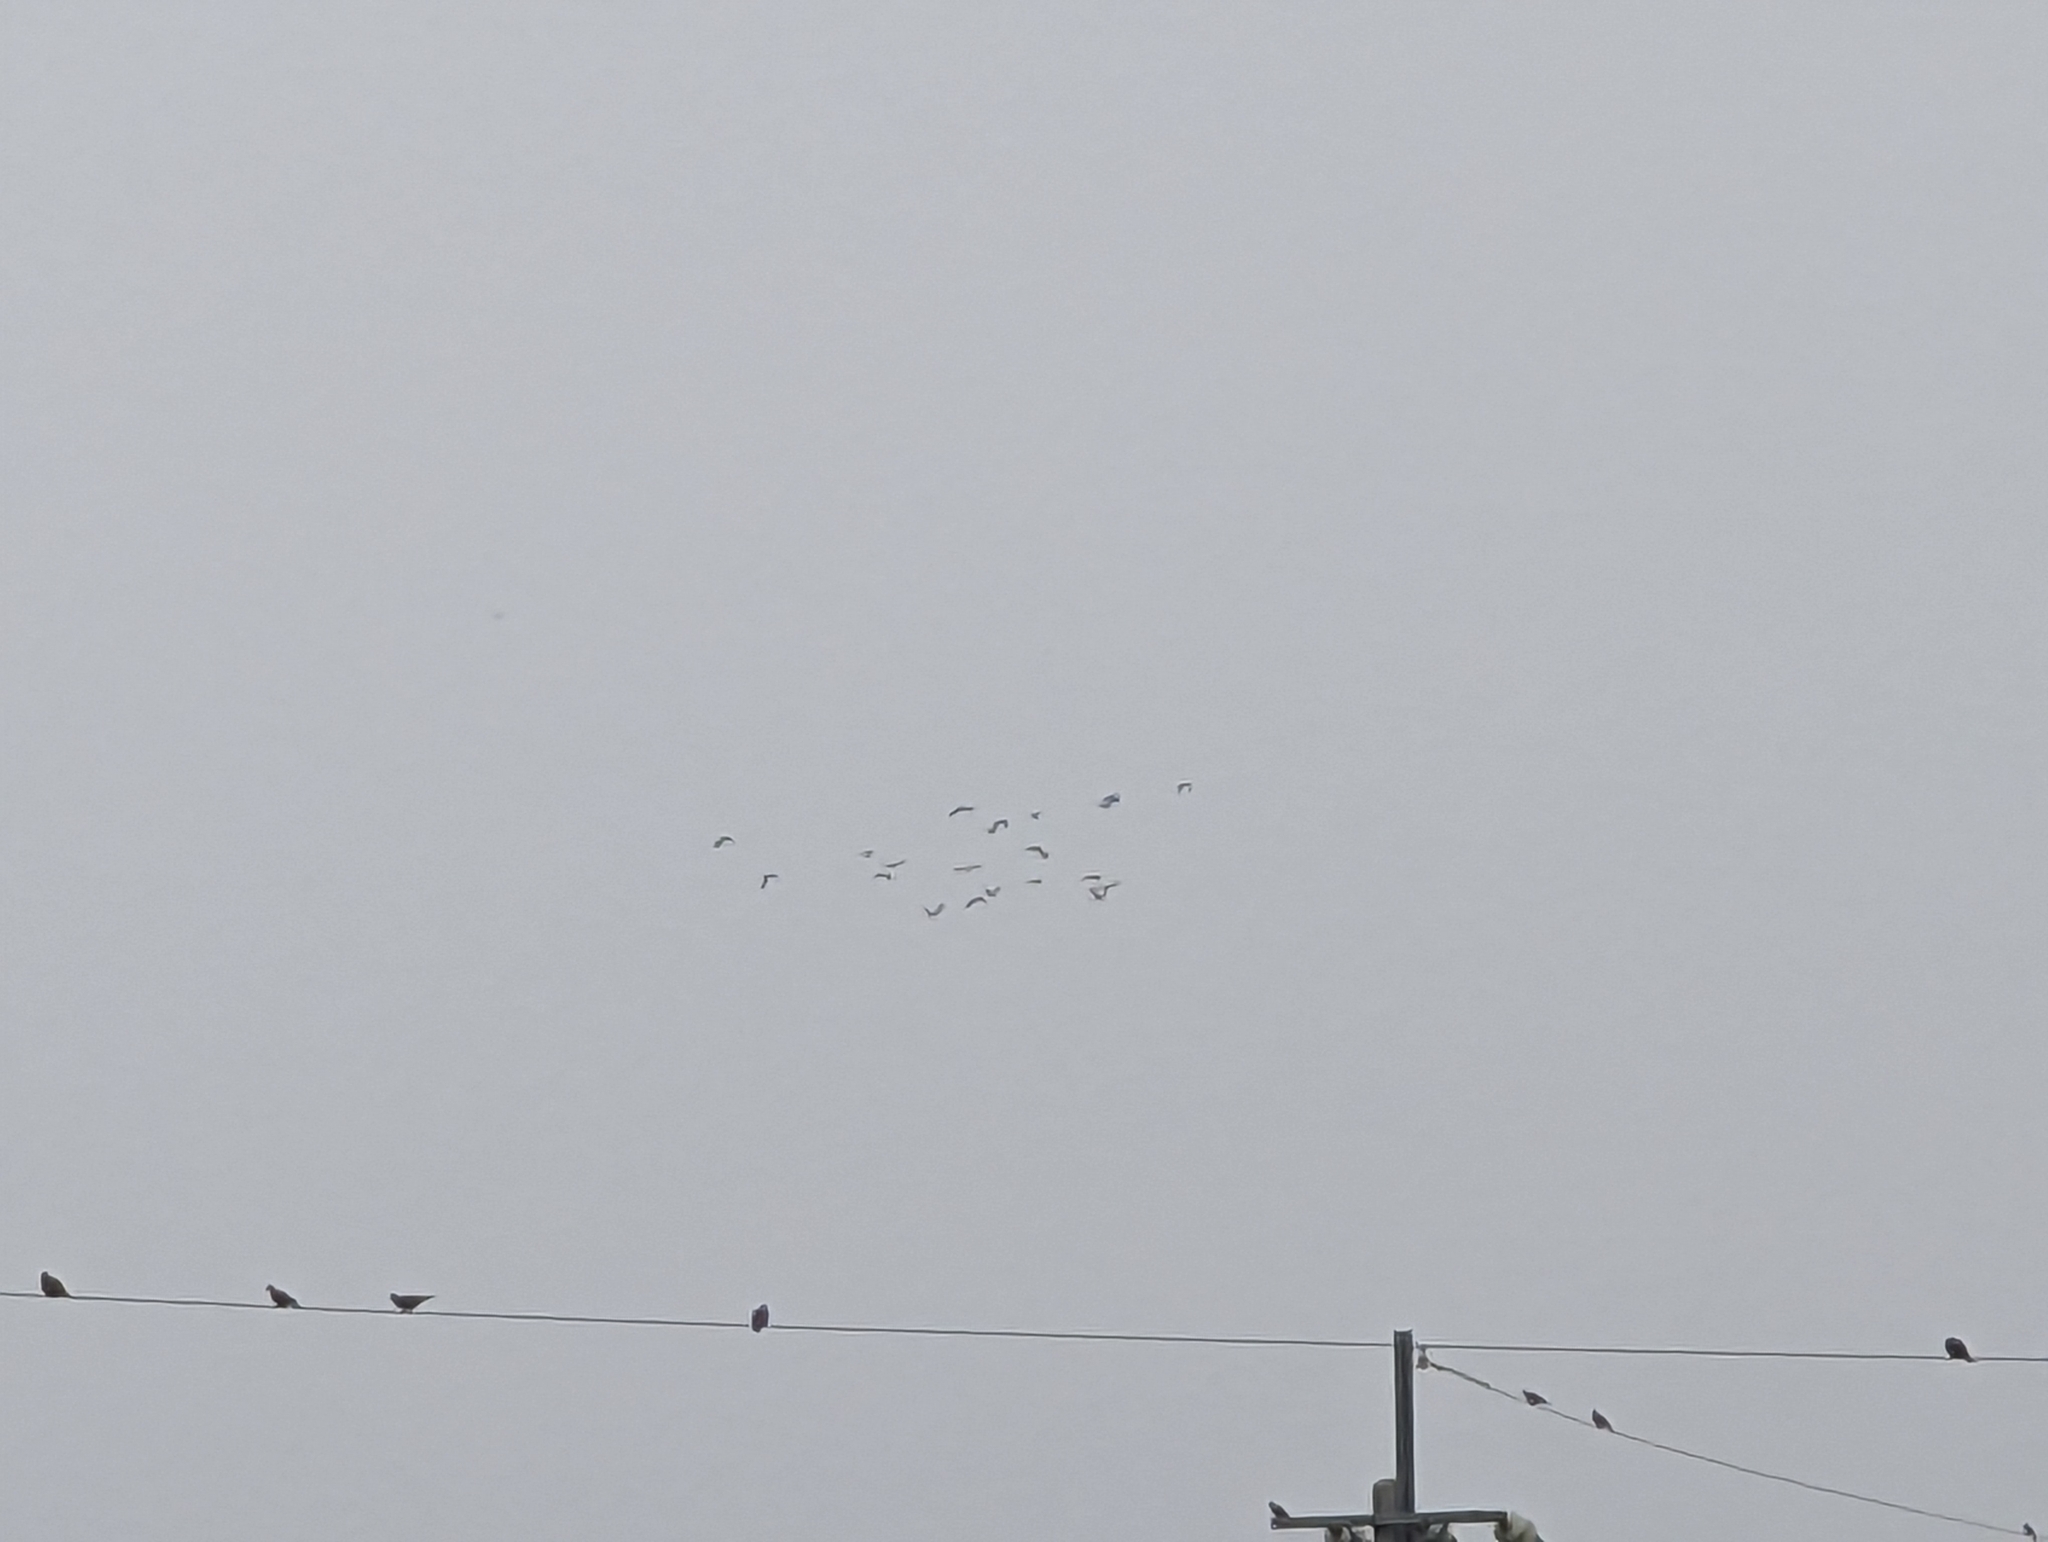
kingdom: Animalia
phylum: Chordata
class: Aves
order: Charadriiformes
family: Recurvirostridae
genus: Himantopus
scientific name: Himantopus himantopus
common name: Black-winged stilt
